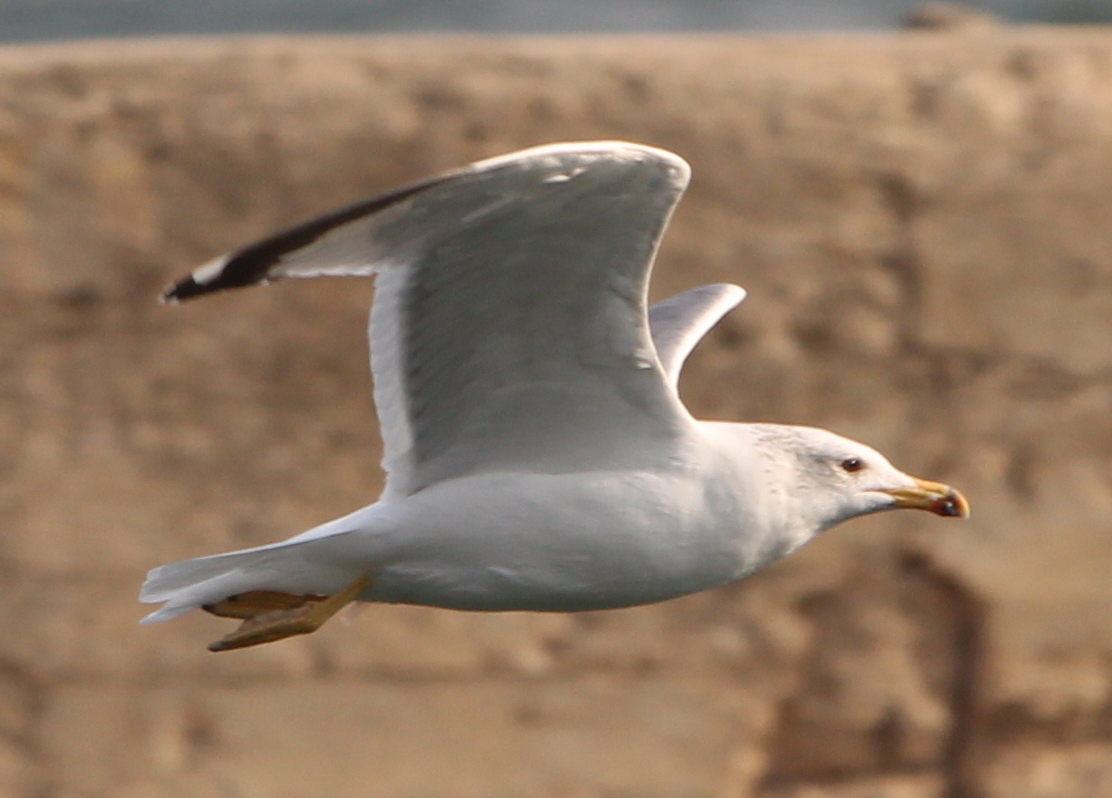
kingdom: Animalia
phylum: Chordata
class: Aves
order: Charadriiformes
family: Laridae
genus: Larus
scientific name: Larus armenicus
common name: Armenian gull
